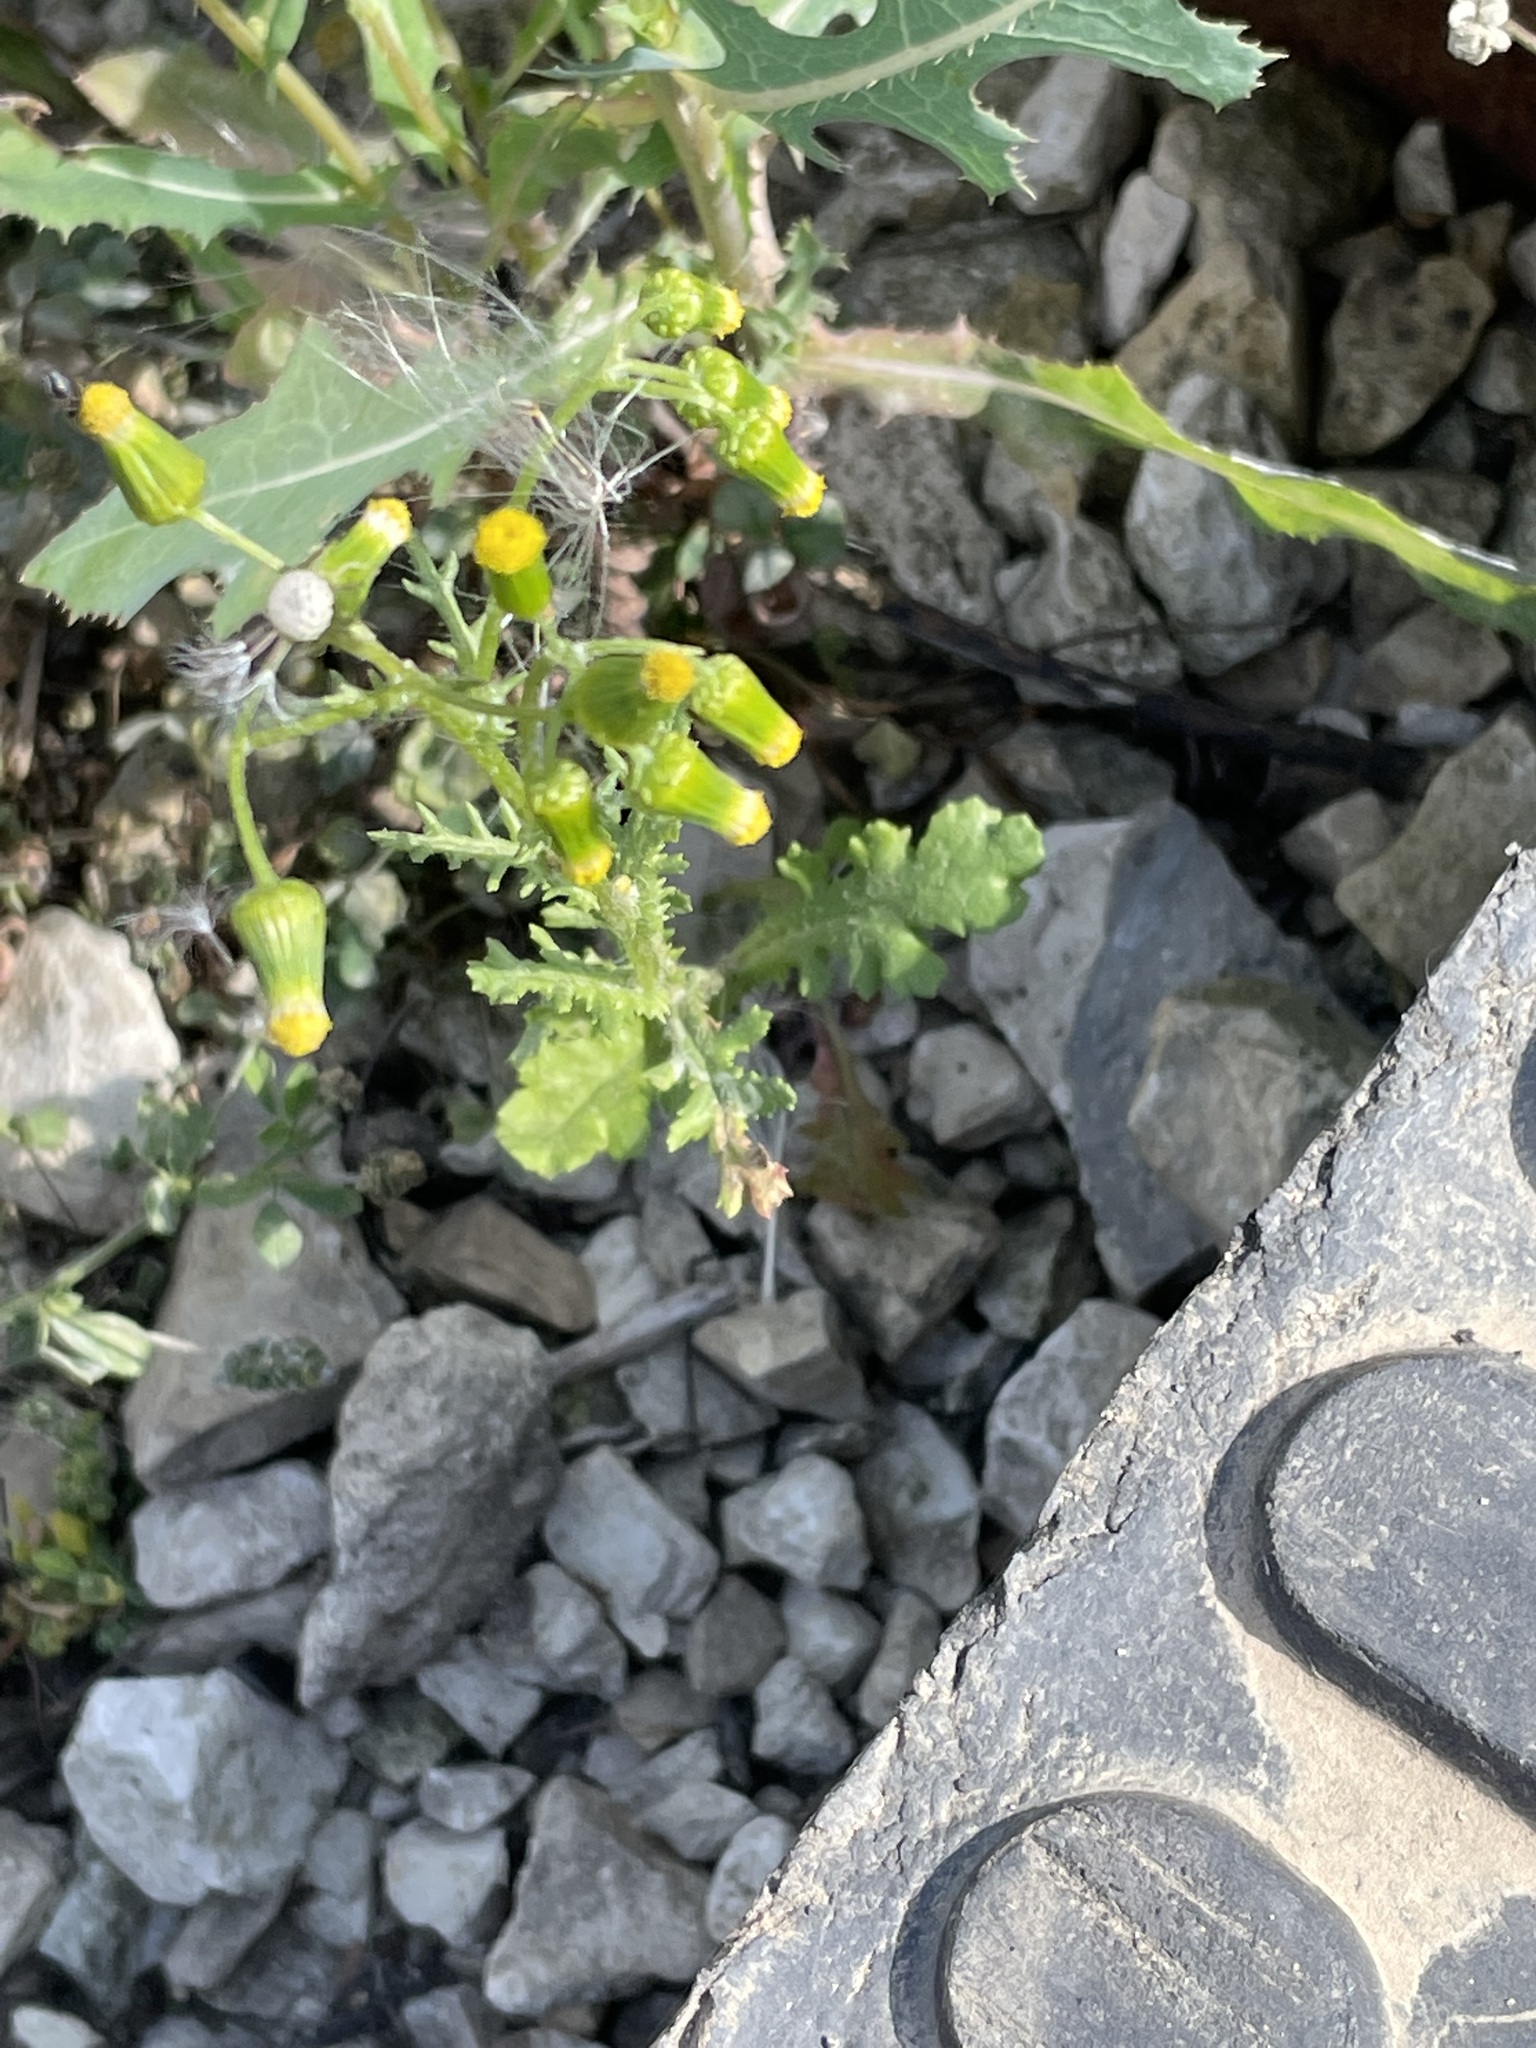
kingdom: Plantae
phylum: Tracheophyta
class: Magnoliopsida
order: Asterales
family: Asteraceae
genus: Senecio
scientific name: Senecio vulgaris
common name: Old-man-in-the-spring
